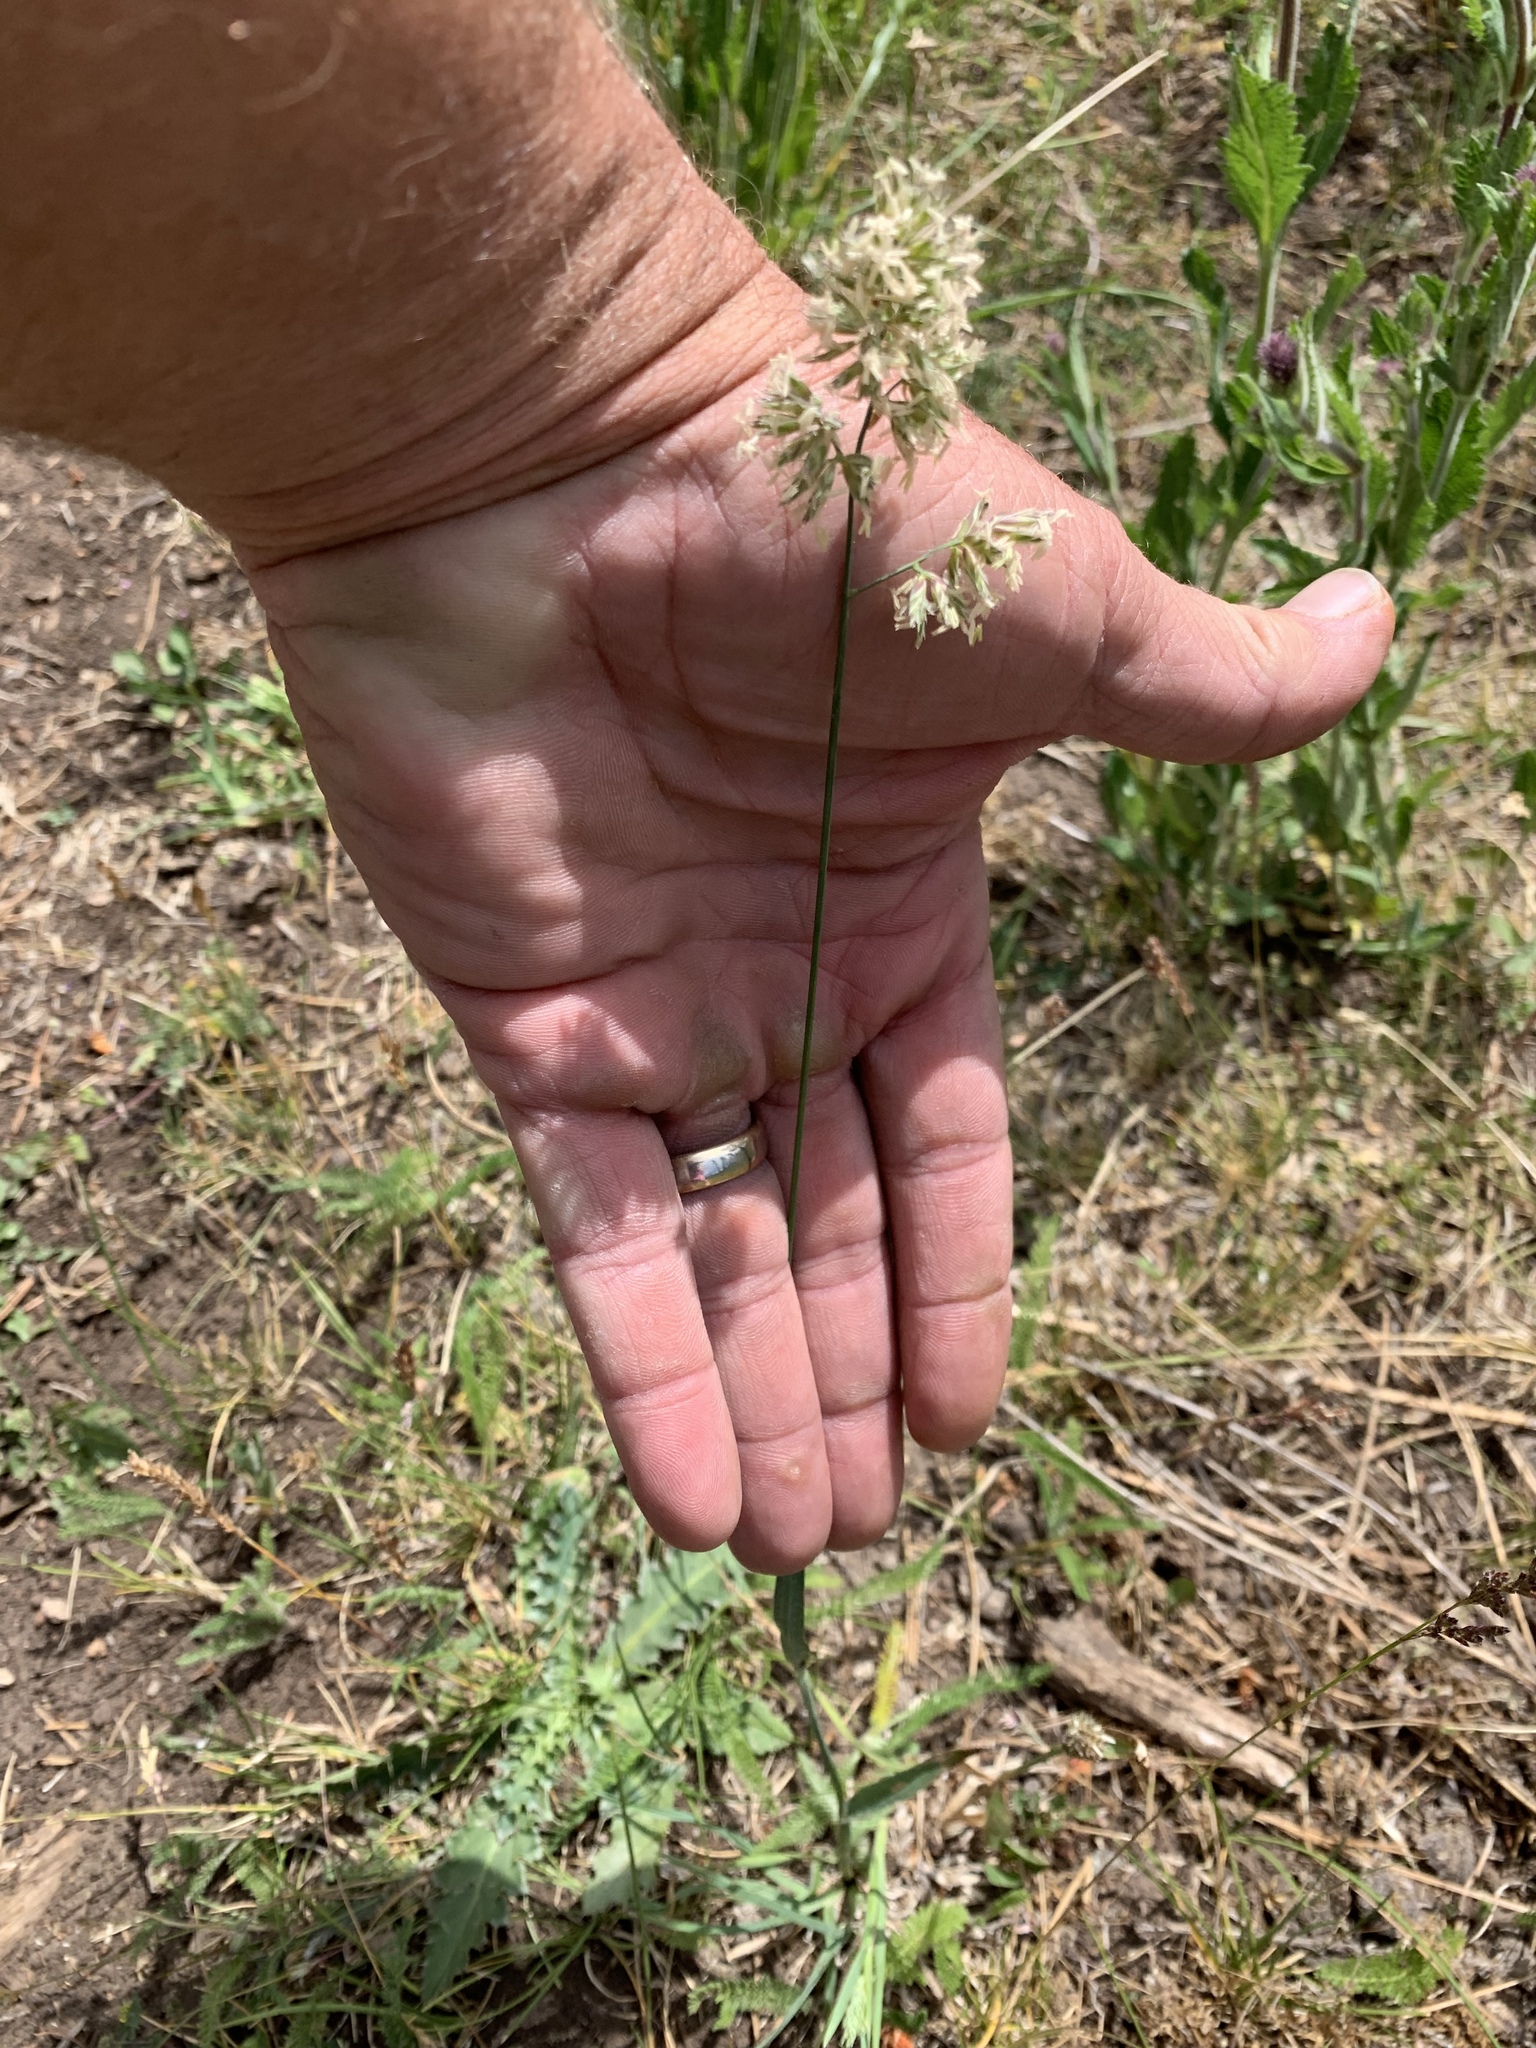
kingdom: Plantae
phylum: Tracheophyta
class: Liliopsida
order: Poales
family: Poaceae
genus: Dactylis
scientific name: Dactylis glomerata
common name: Orchardgrass
